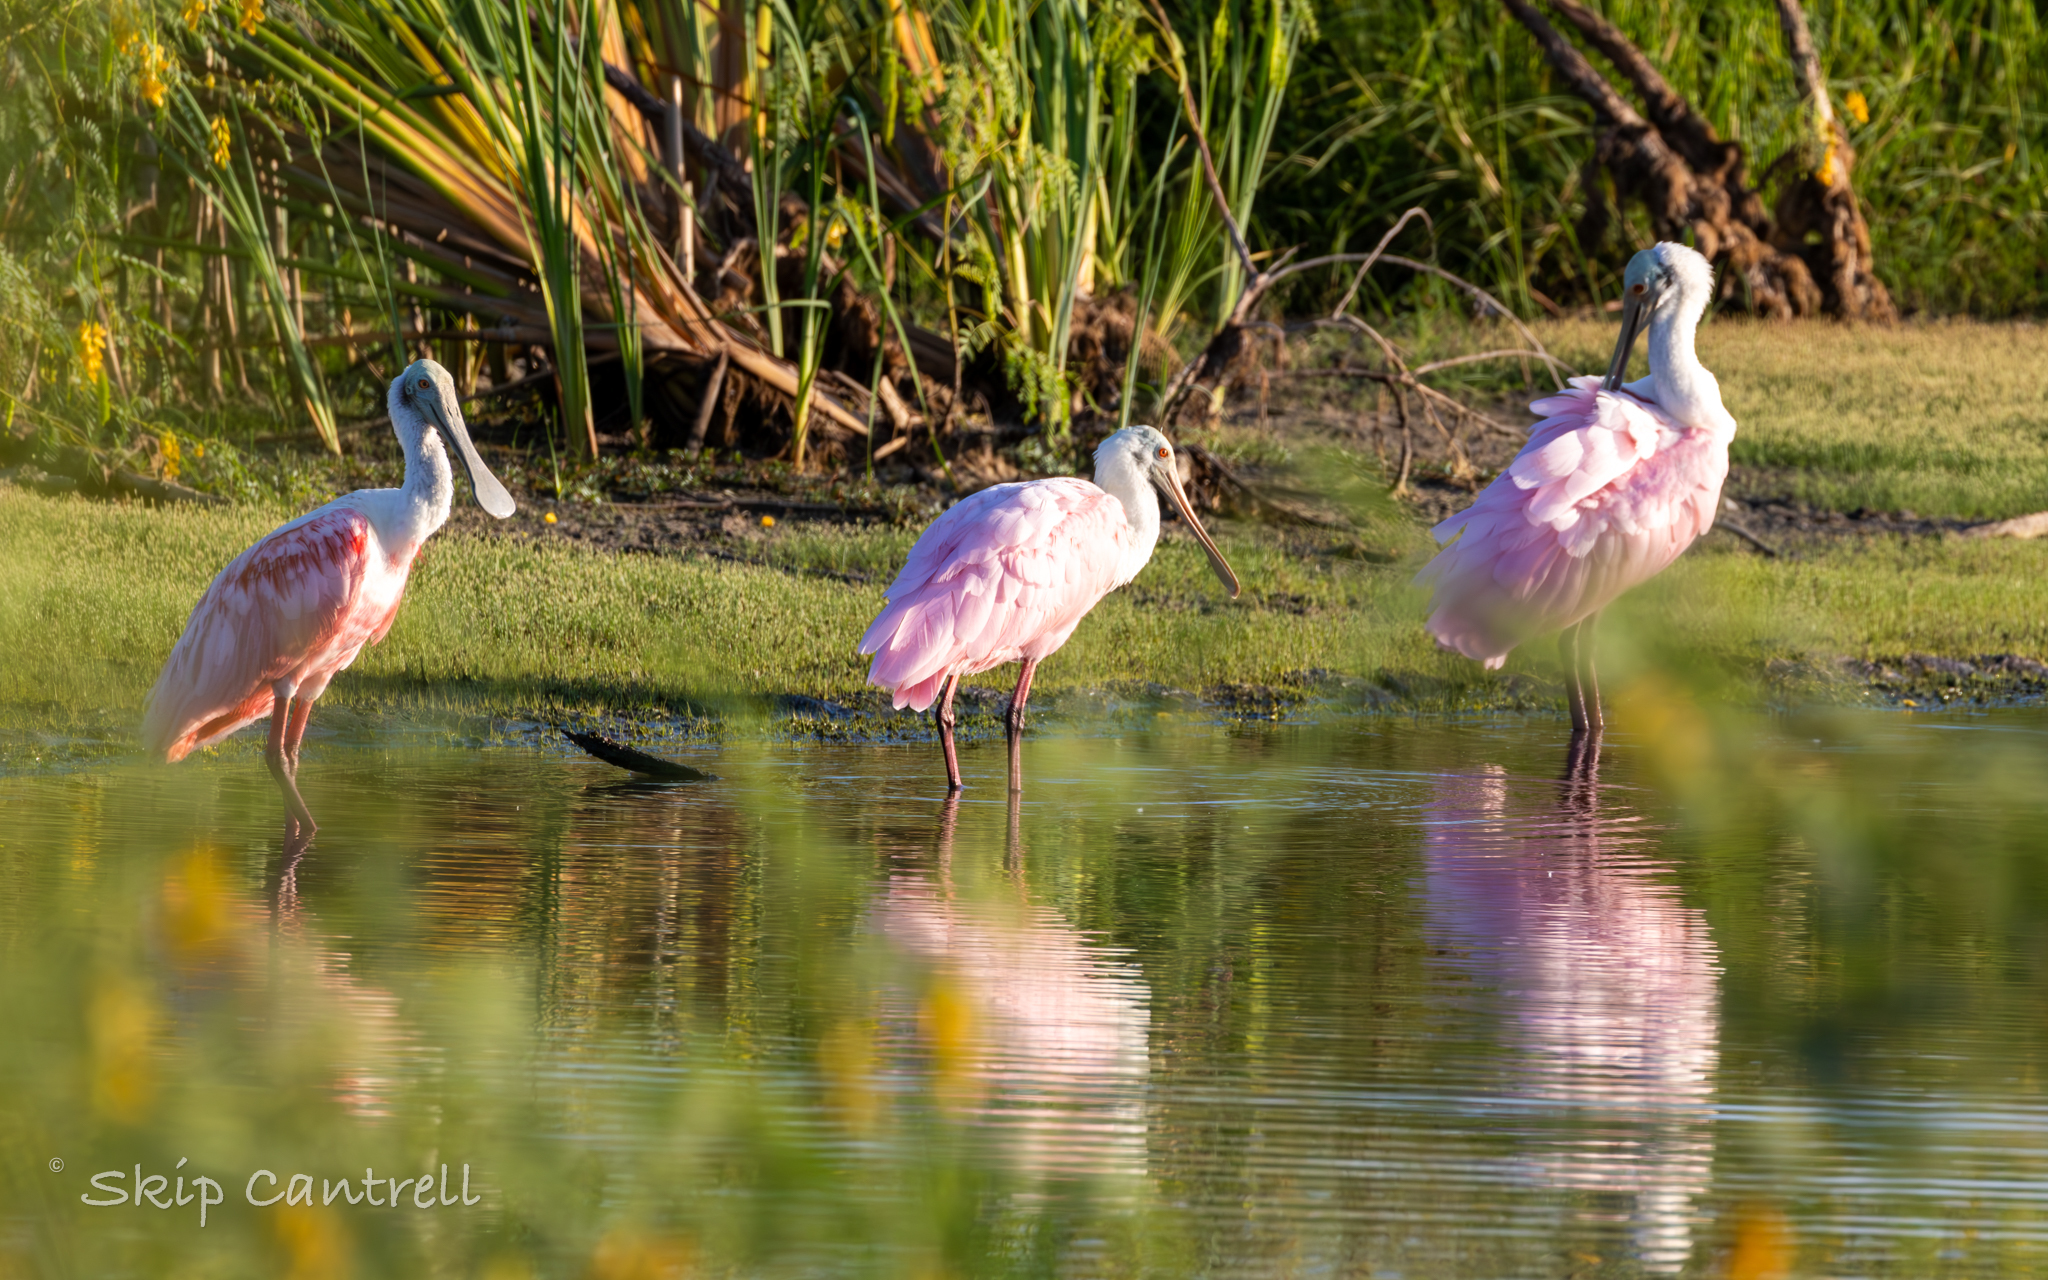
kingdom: Animalia
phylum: Chordata
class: Aves
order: Pelecaniformes
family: Threskiornithidae
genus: Platalea
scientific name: Platalea ajaja
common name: Roseate spoonbill
